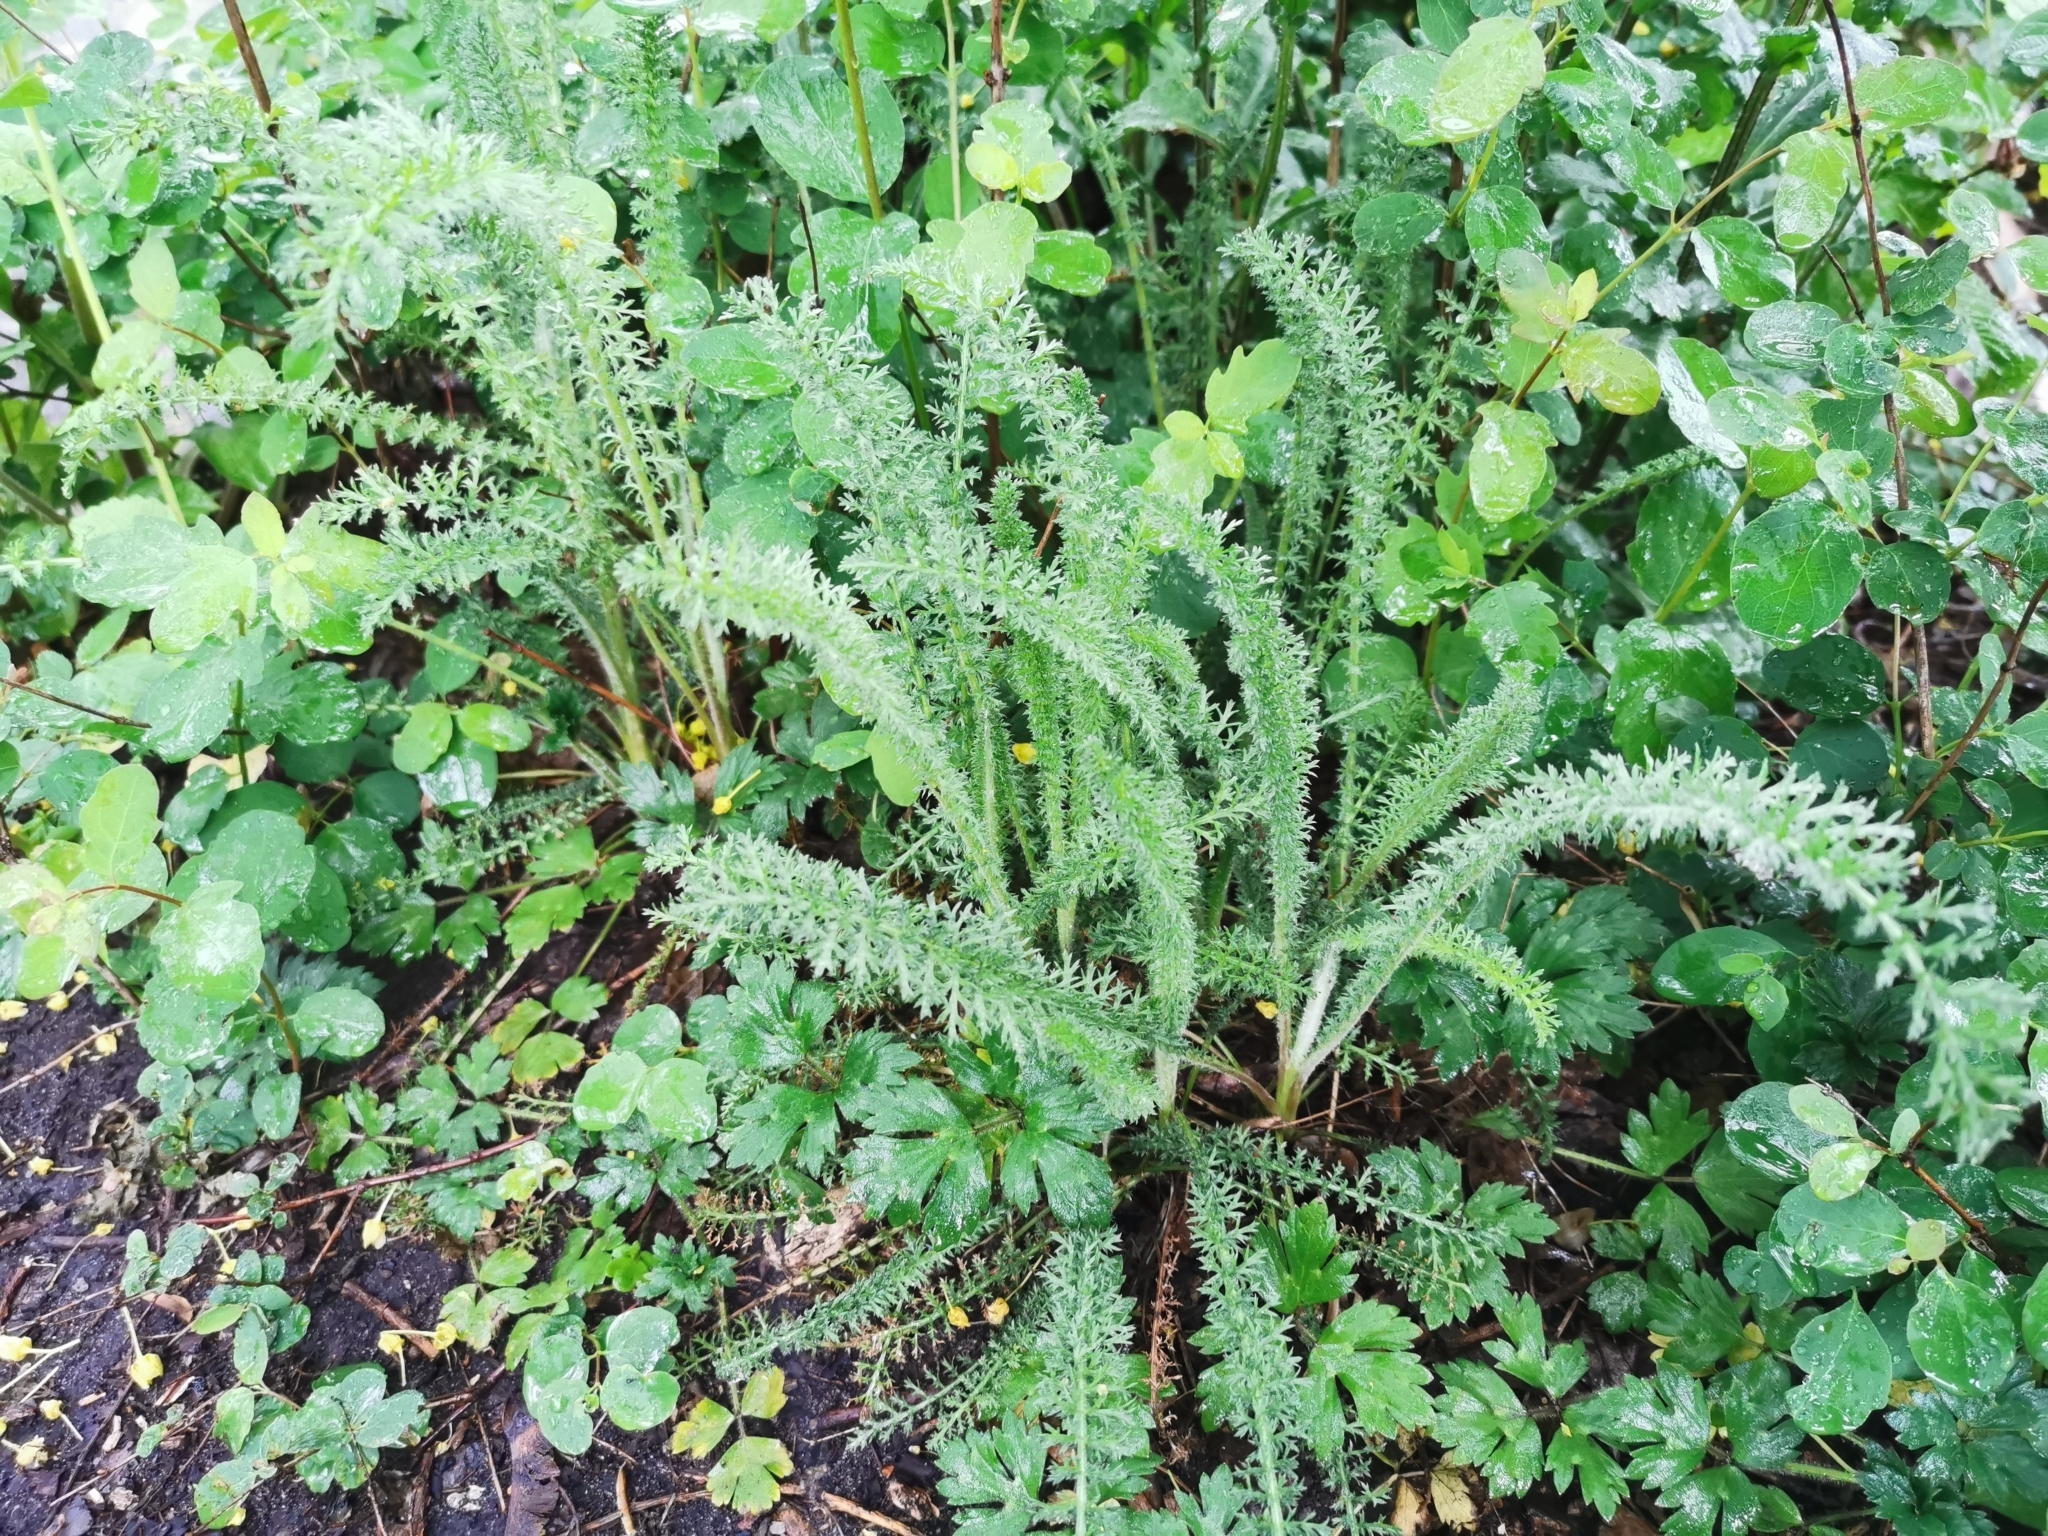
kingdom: Plantae
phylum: Tracheophyta
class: Magnoliopsida
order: Asterales
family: Asteraceae
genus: Achillea
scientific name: Achillea millefolium
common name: Yarrow
